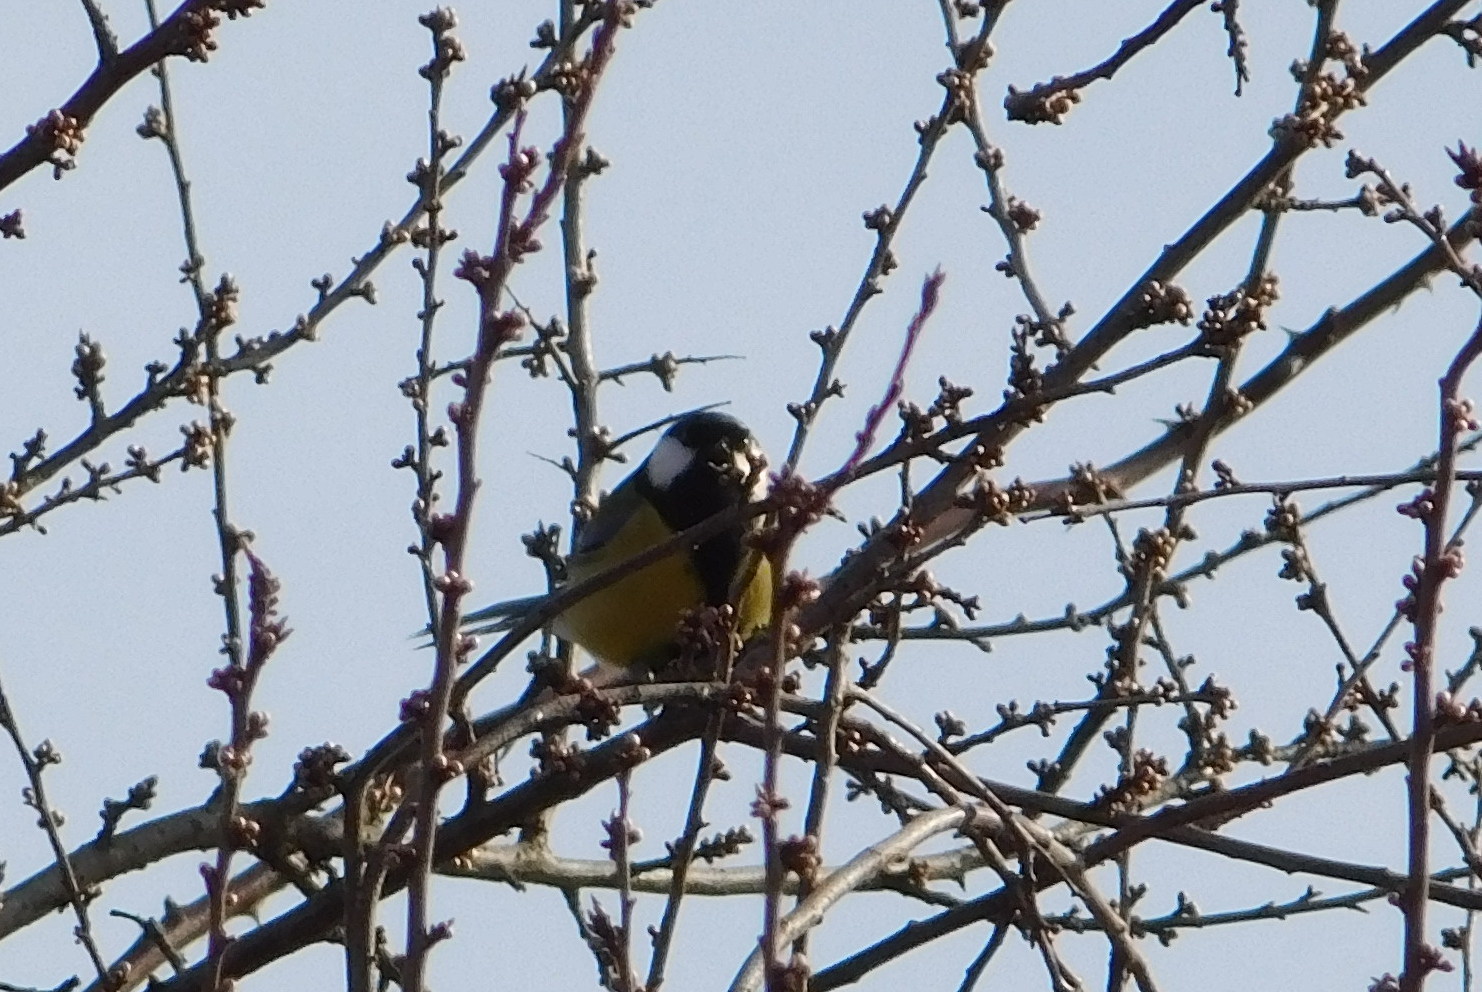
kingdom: Animalia
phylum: Chordata
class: Aves
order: Passeriformes
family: Paridae
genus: Parus
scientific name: Parus major
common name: Great tit
